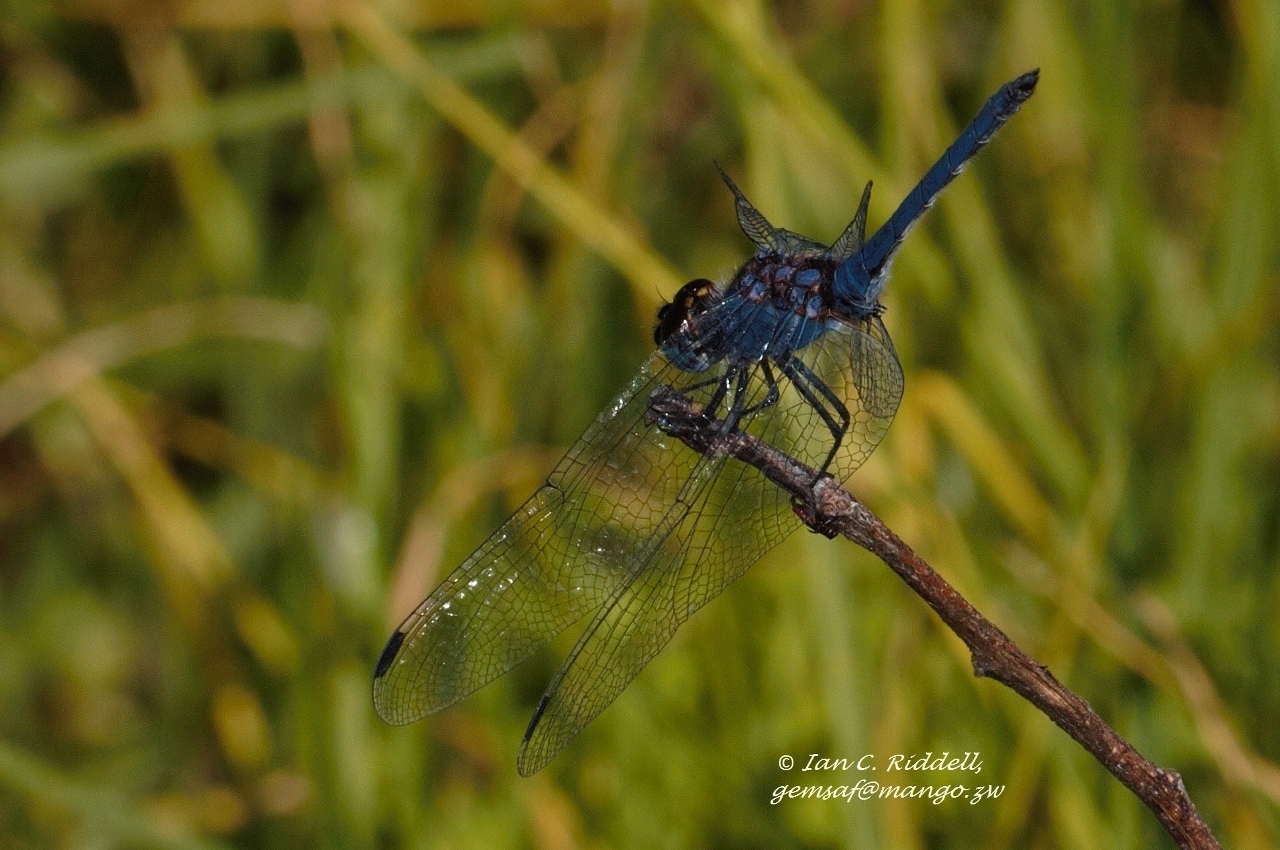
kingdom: Animalia
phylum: Arthropoda
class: Insecta
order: Odonata
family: Libellulidae
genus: Trithemis
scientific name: Trithemis furva
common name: Dark dropwing
